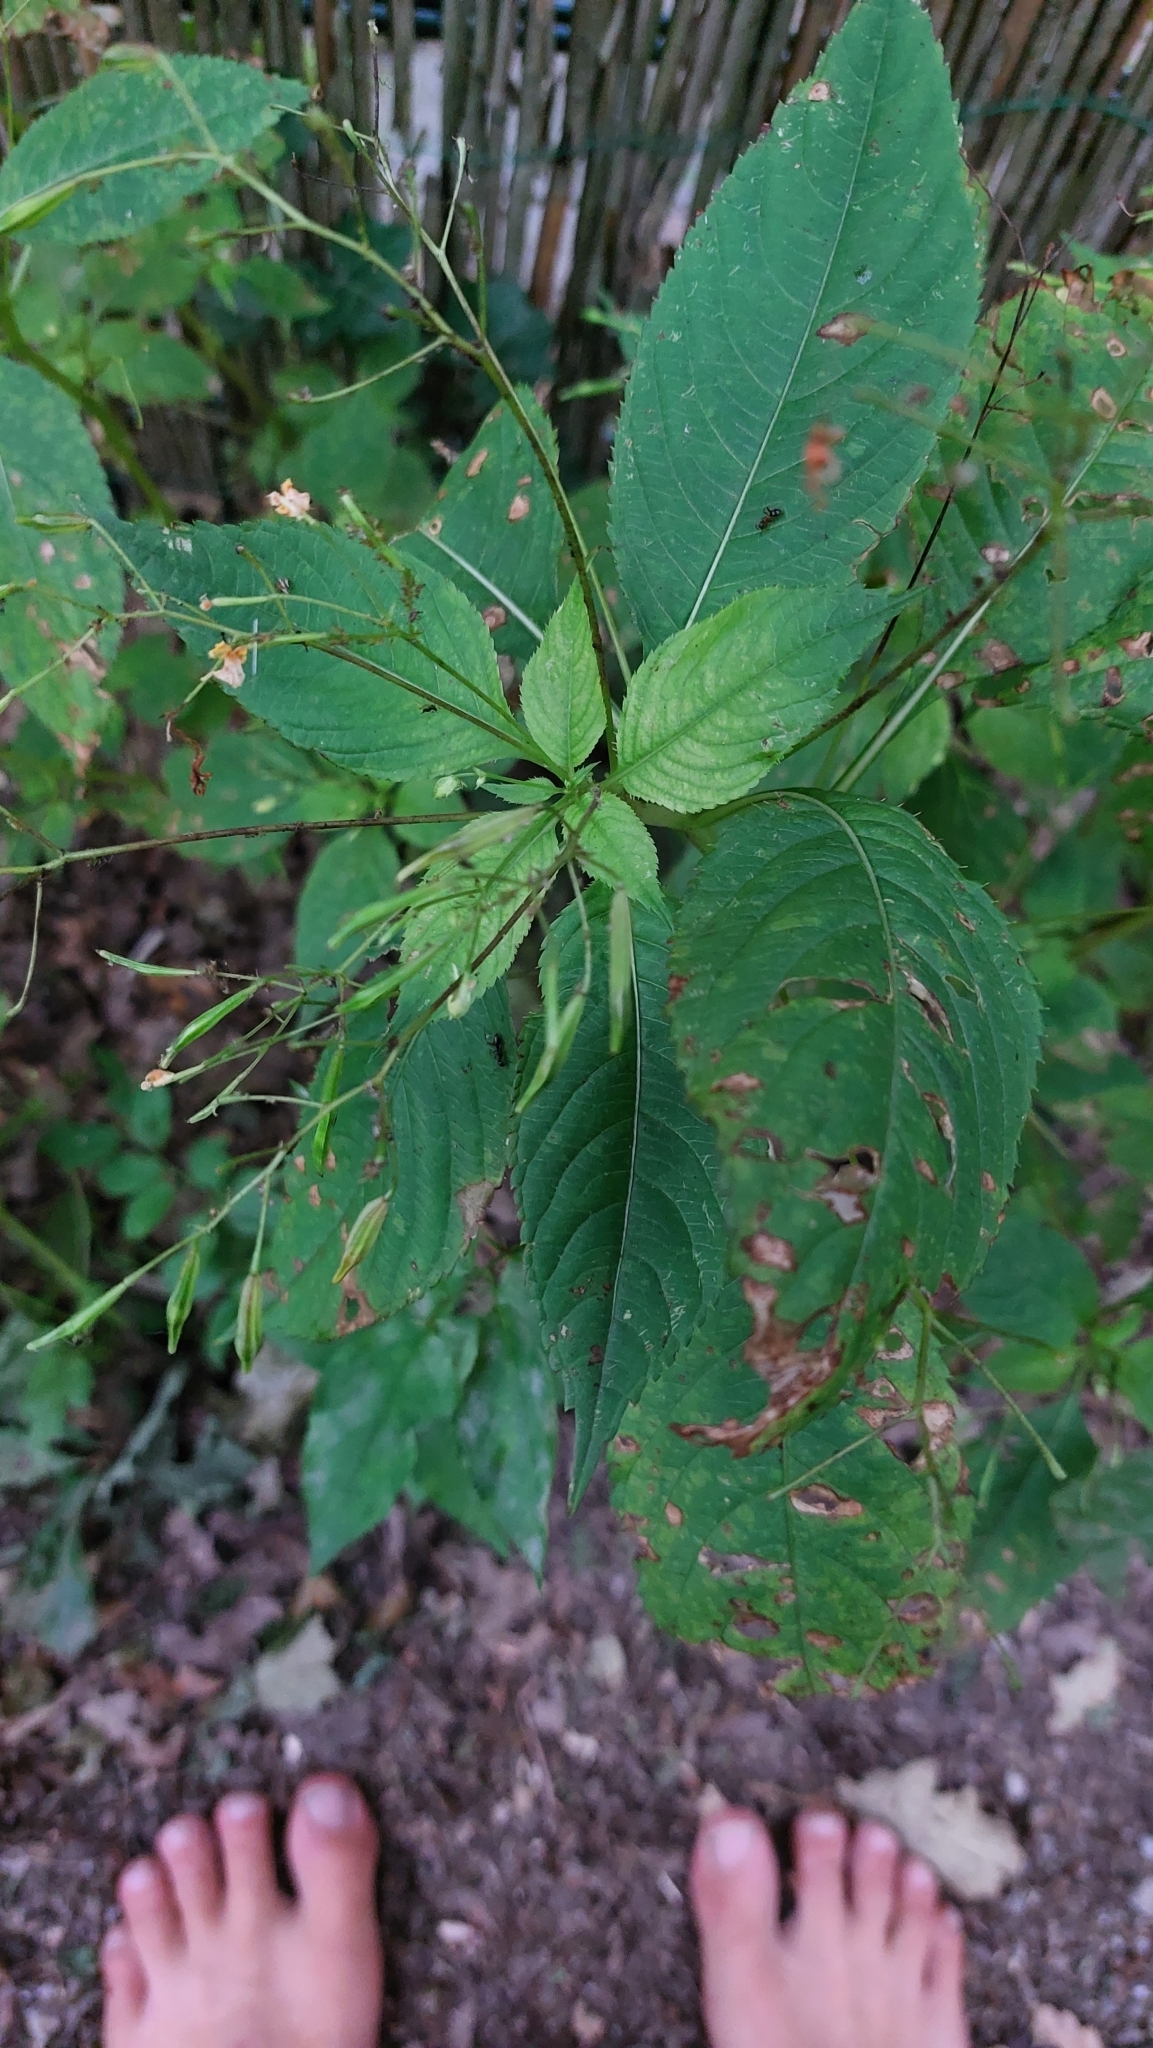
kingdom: Plantae
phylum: Tracheophyta
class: Magnoliopsida
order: Ericales
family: Balsaminaceae
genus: Impatiens
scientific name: Impatiens parviflora
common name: Small balsam
